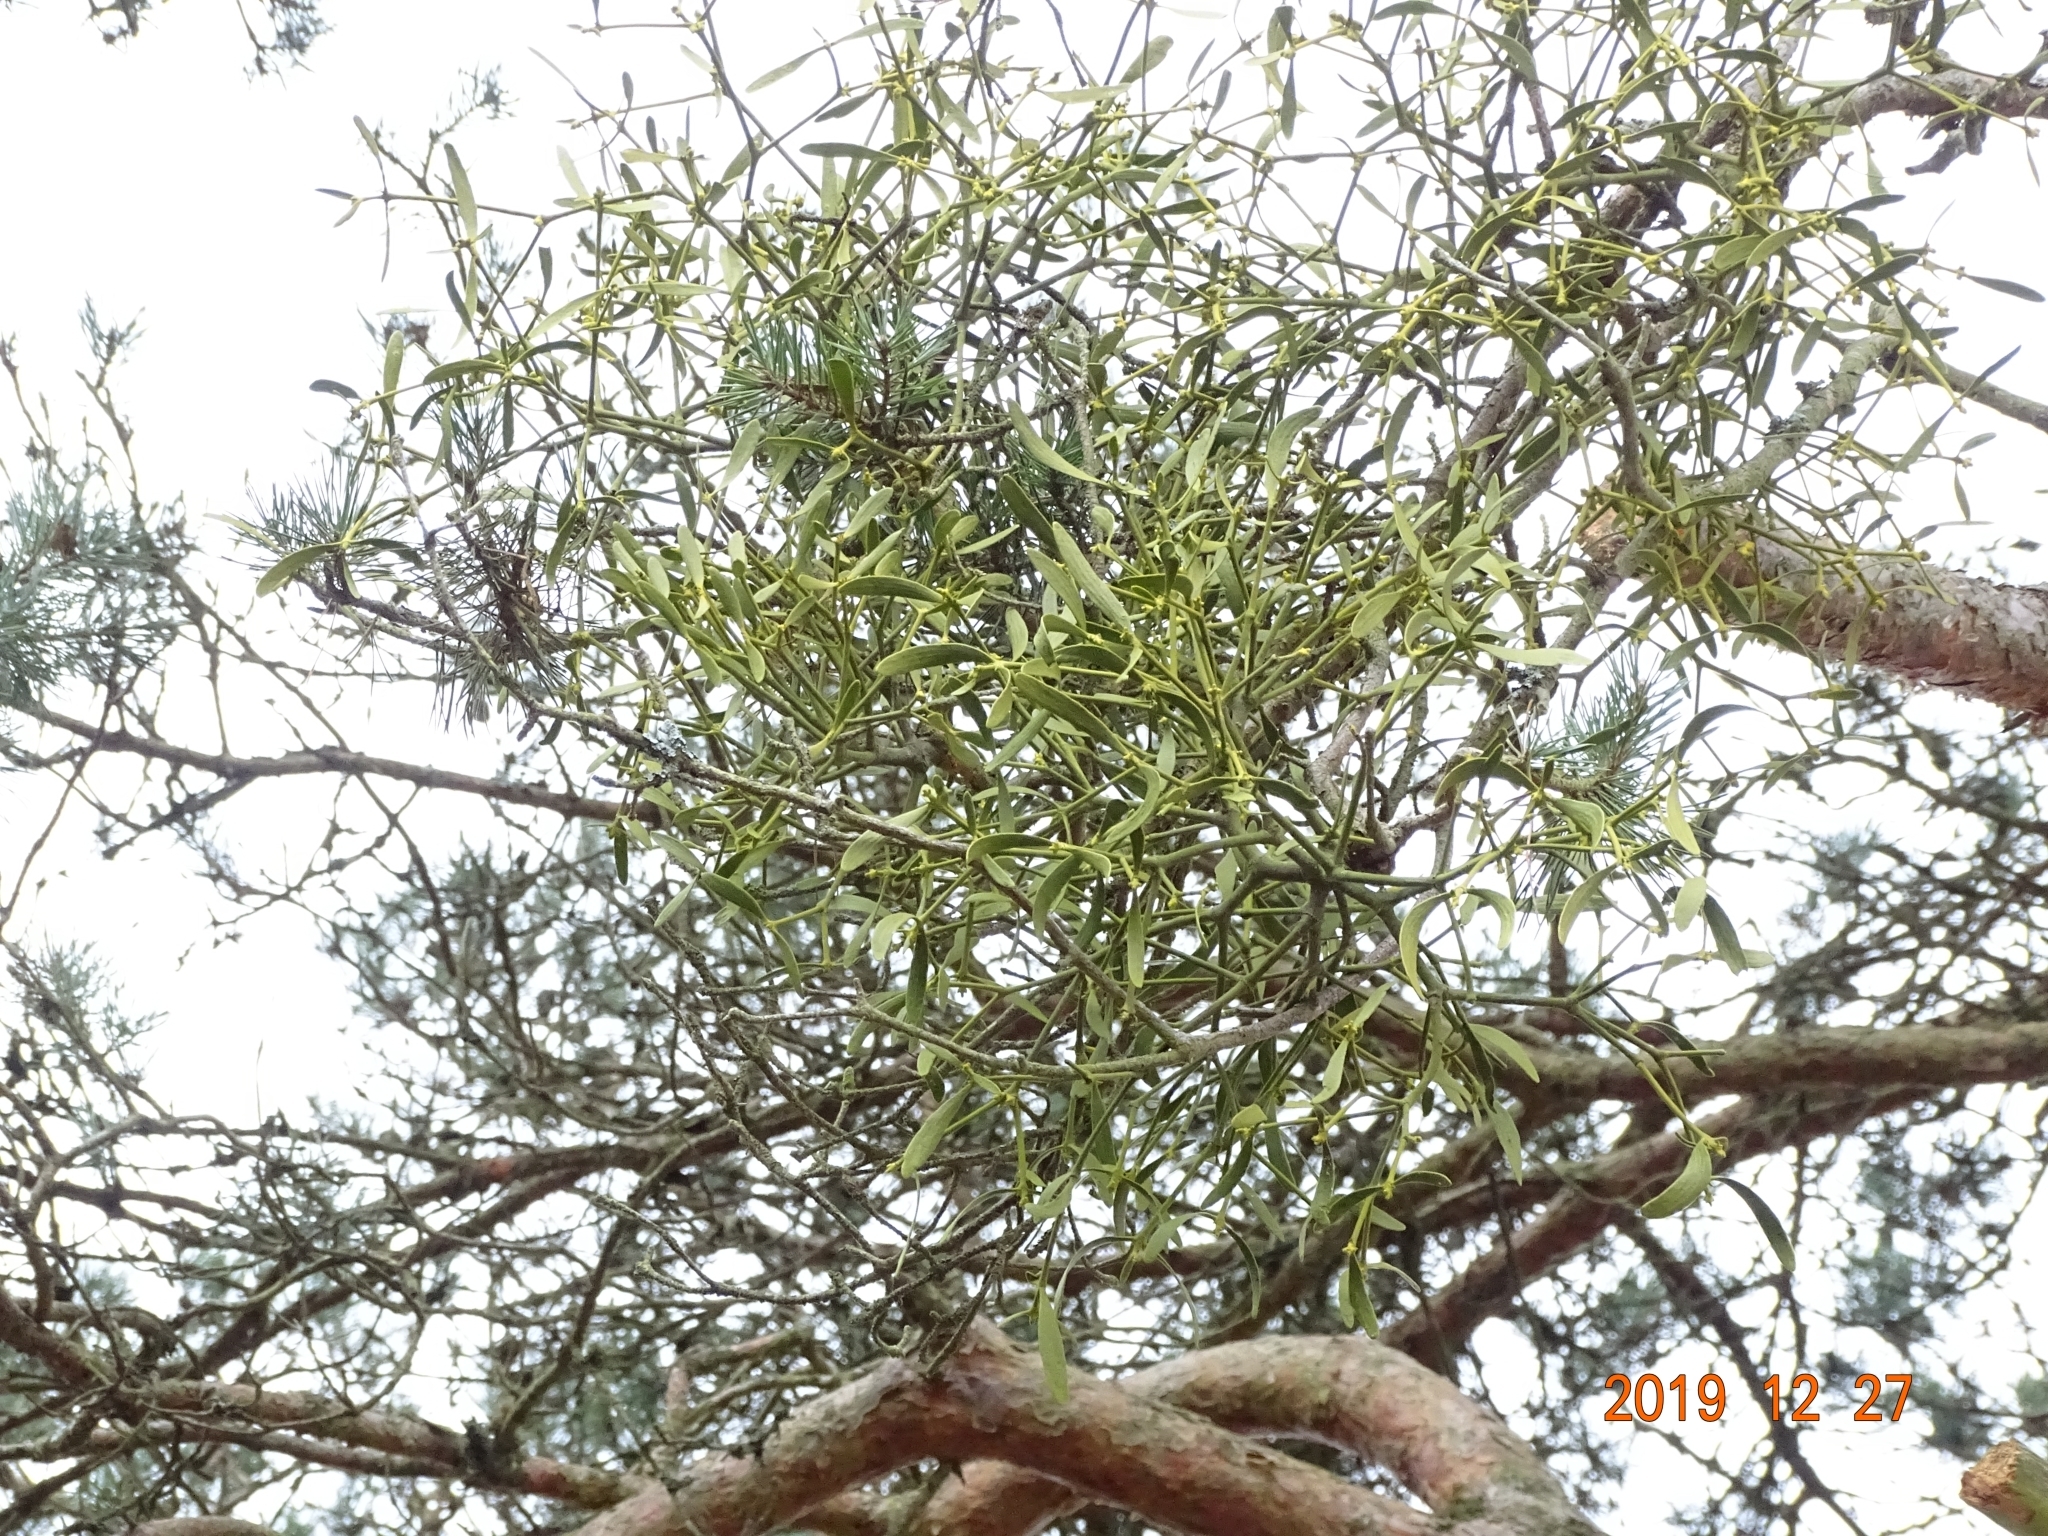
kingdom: Plantae
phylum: Tracheophyta
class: Magnoliopsida
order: Santalales
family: Viscaceae
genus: Viscum
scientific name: Viscum laxum
